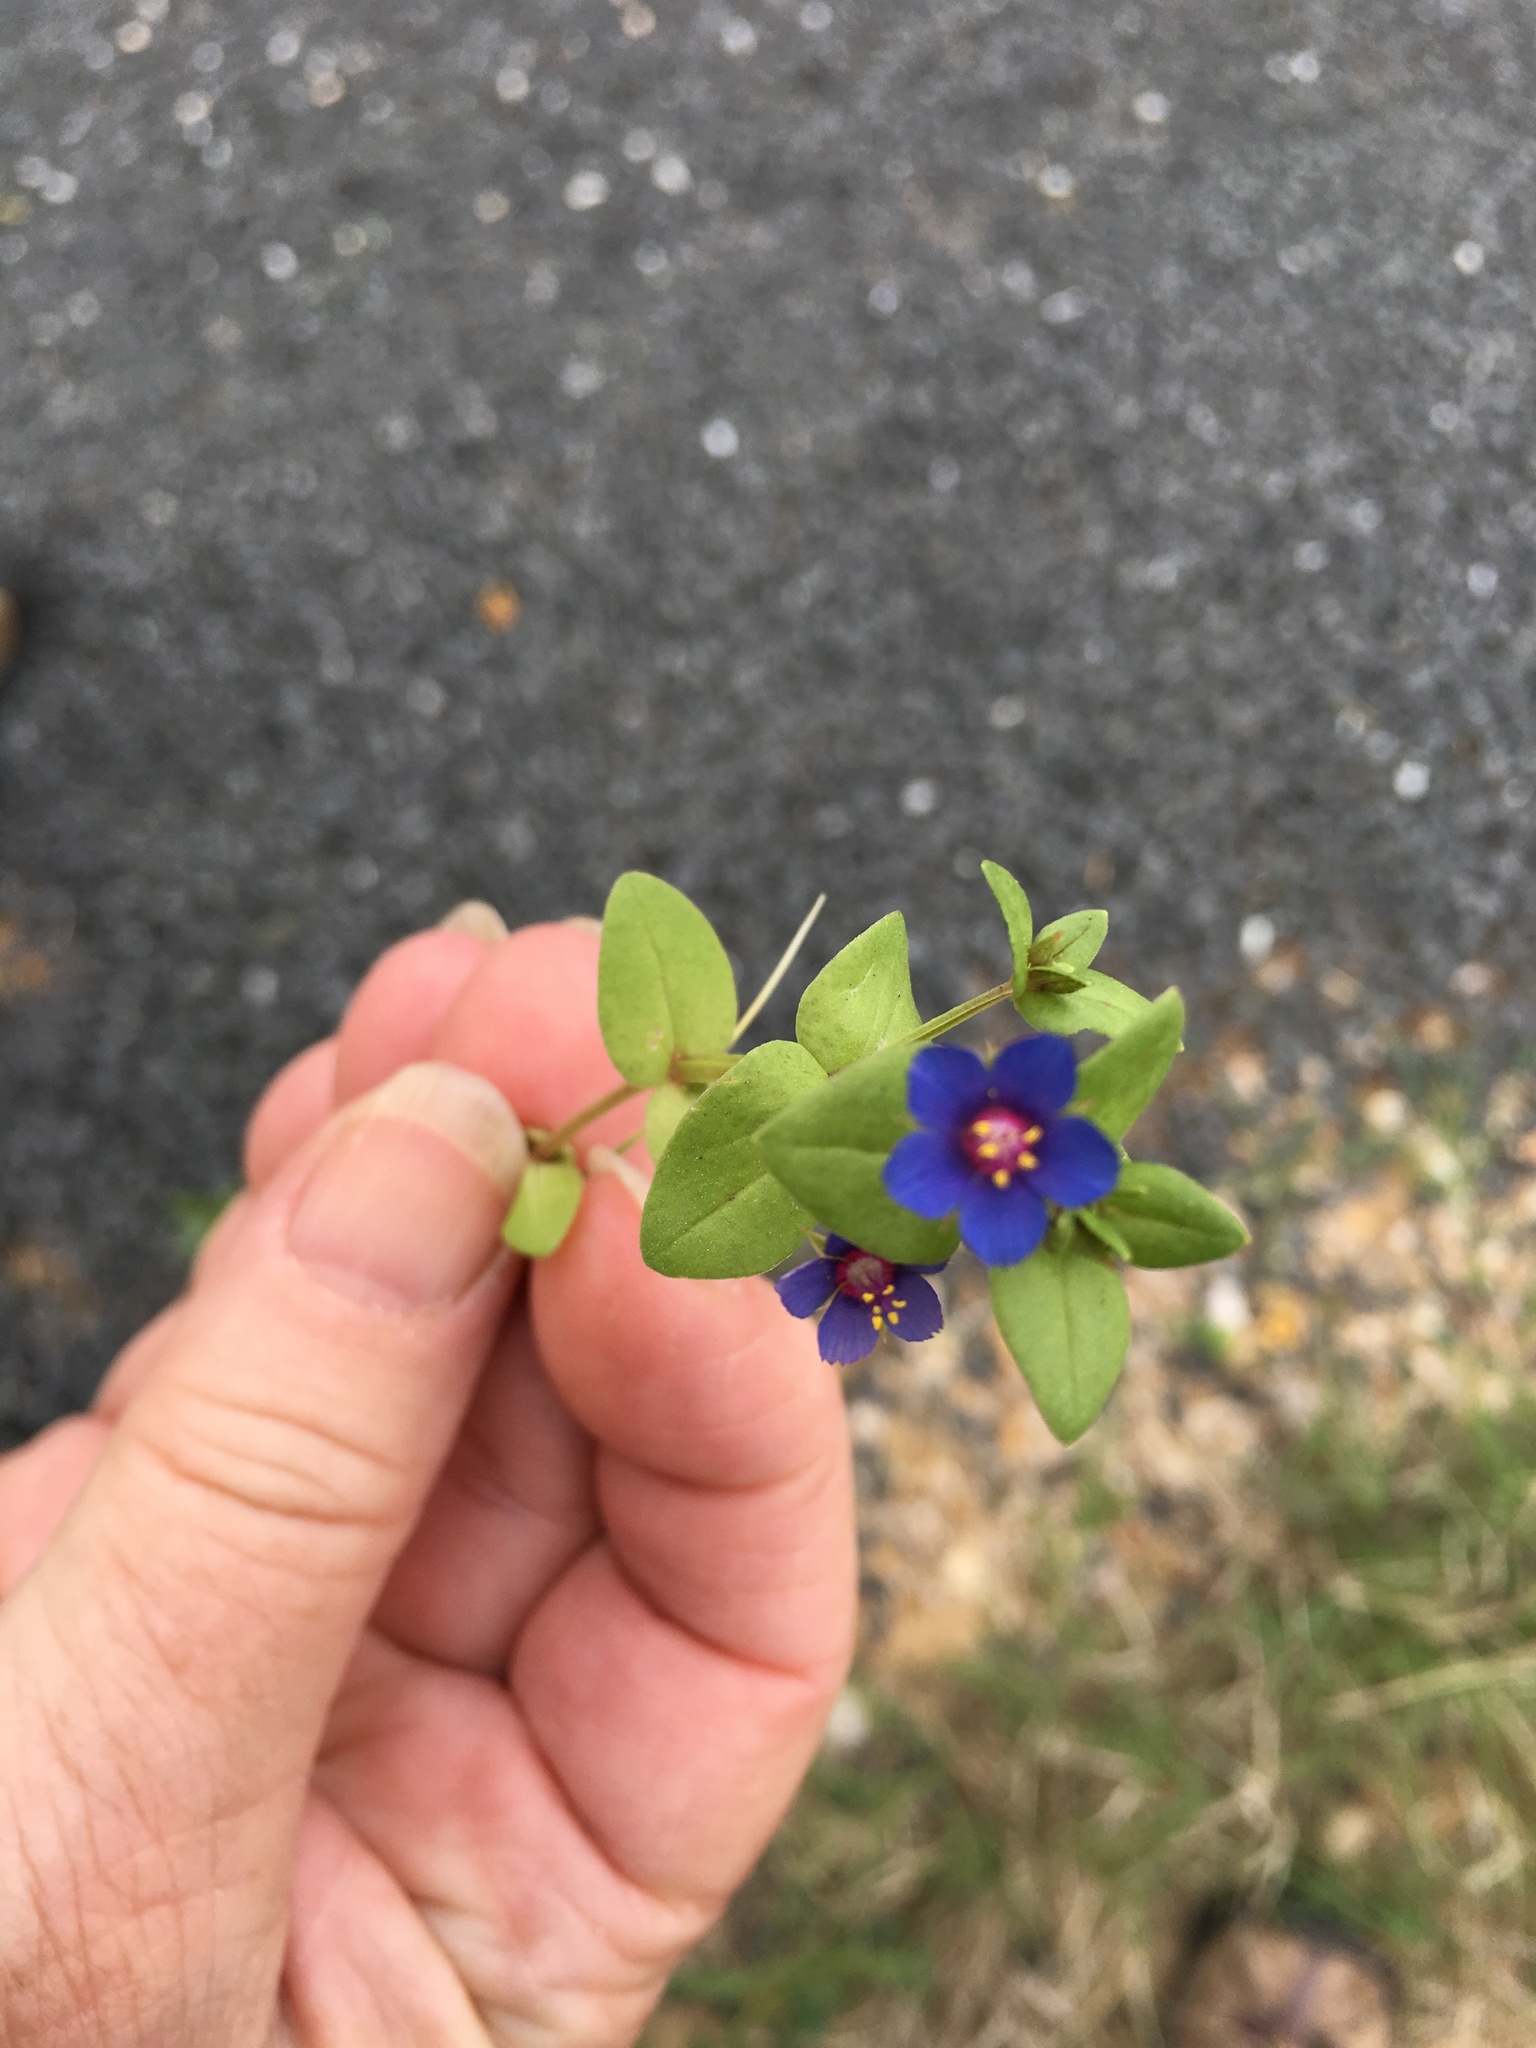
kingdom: Plantae
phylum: Tracheophyta
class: Magnoliopsida
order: Ericales
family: Primulaceae
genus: Lysimachia
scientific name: Lysimachia arvensis
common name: Scarlet pimpernel
